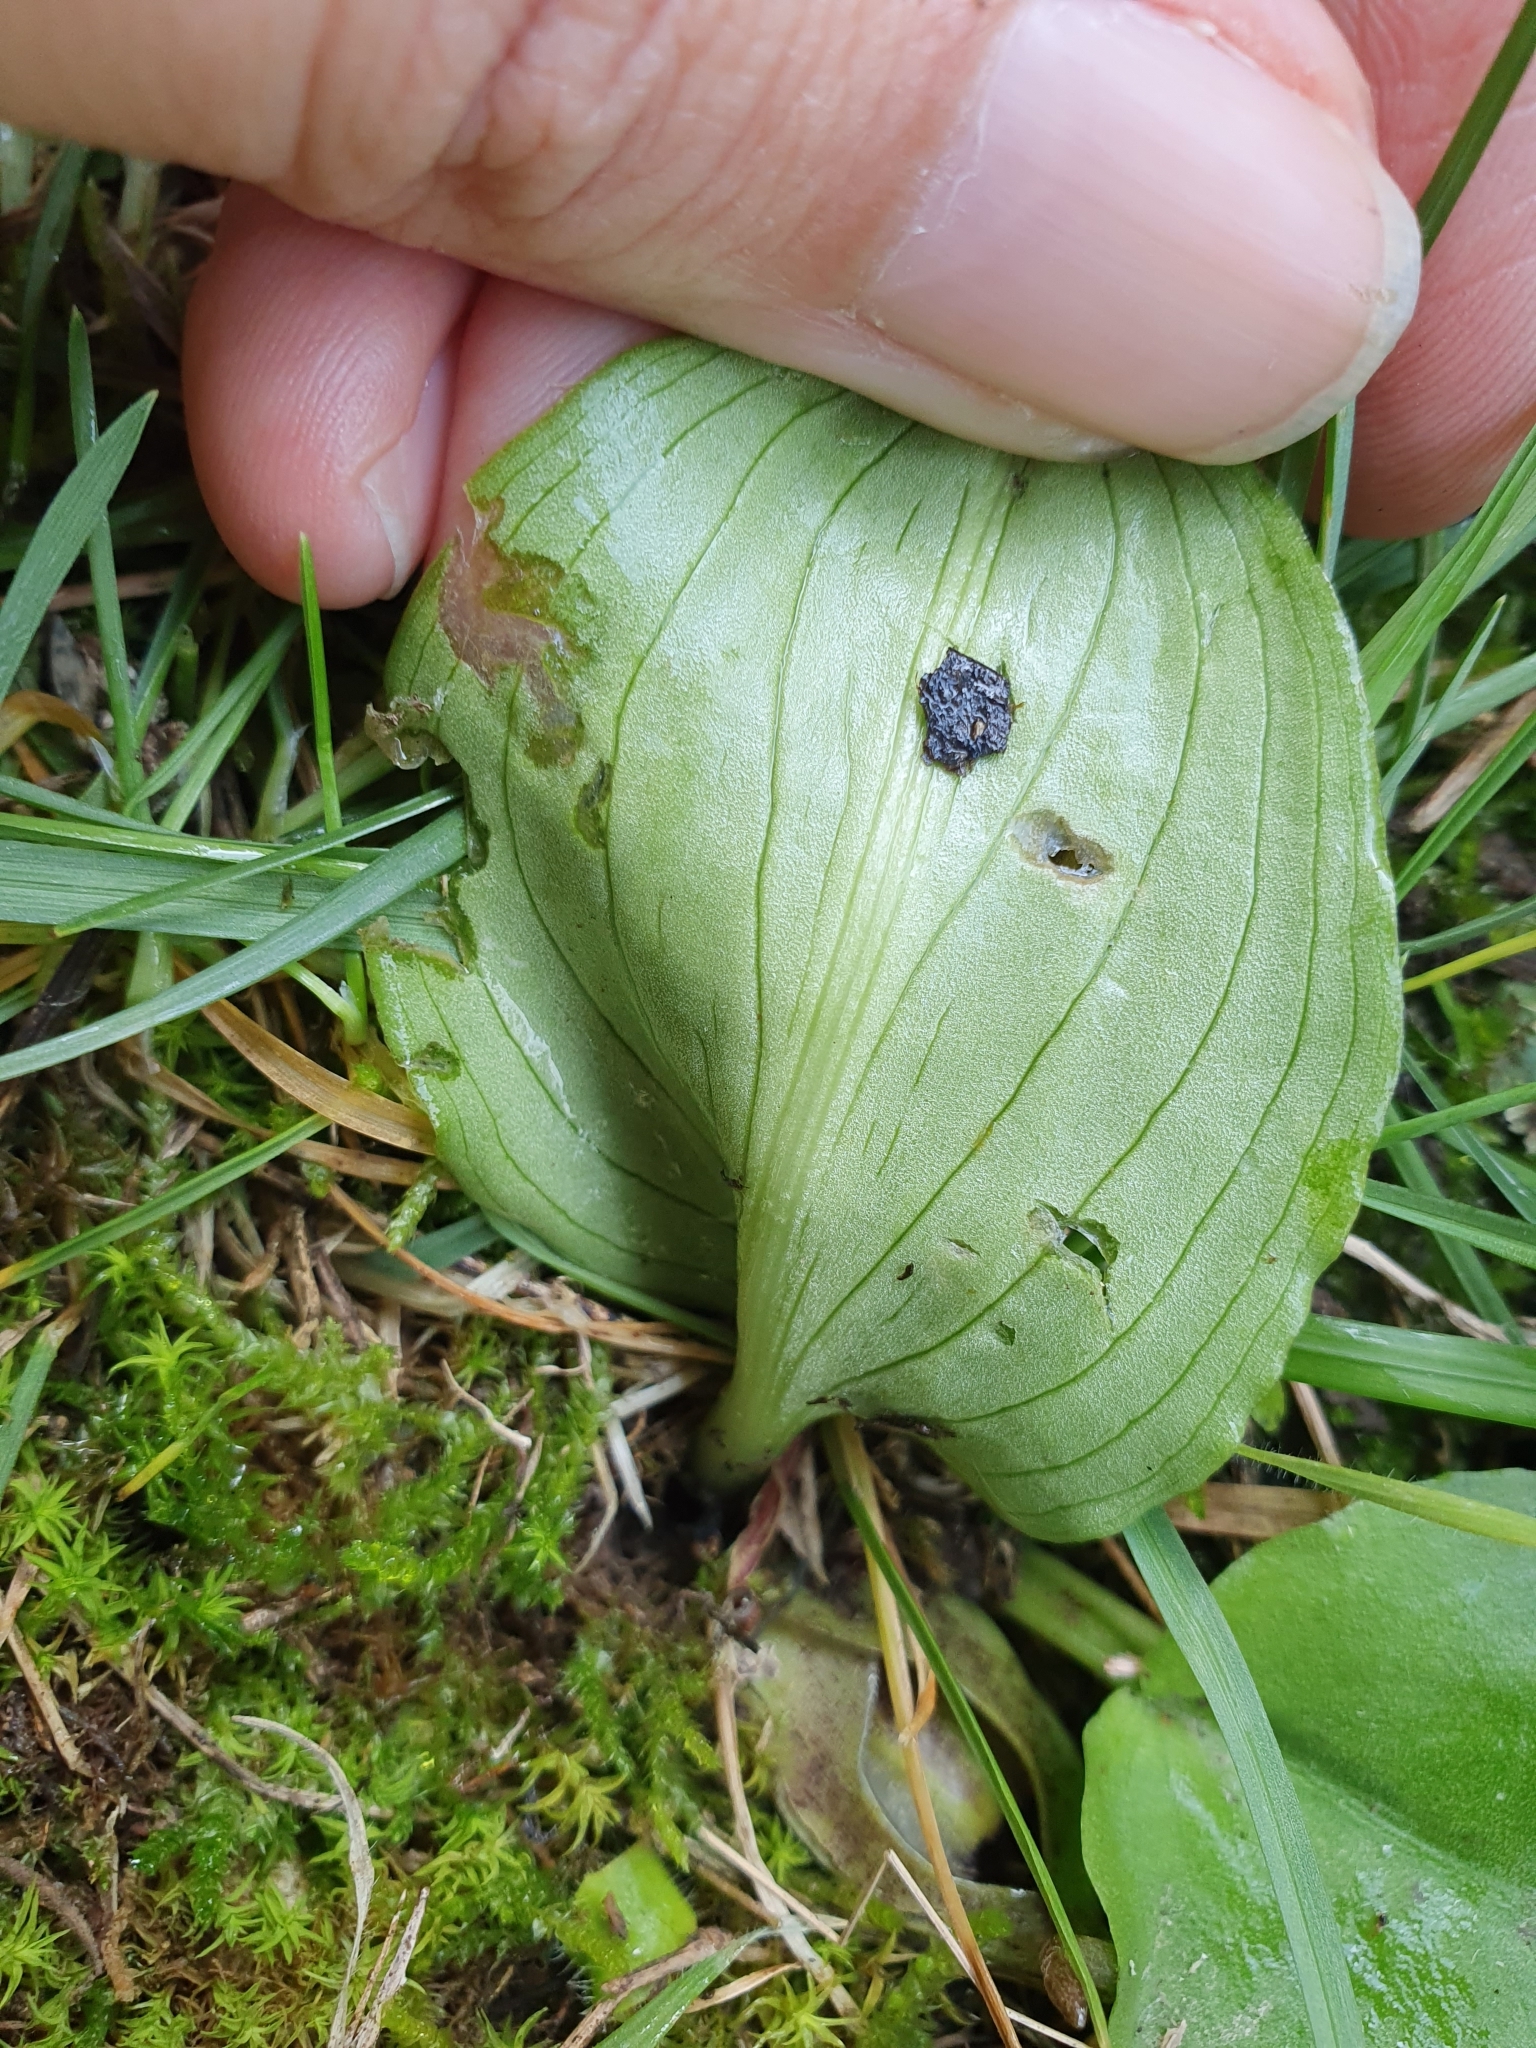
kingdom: Plantae
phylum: Tracheophyta
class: Liliopsida
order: Alismatales
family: Araceae
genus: Ambrosina
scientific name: Ambrosina bassii
